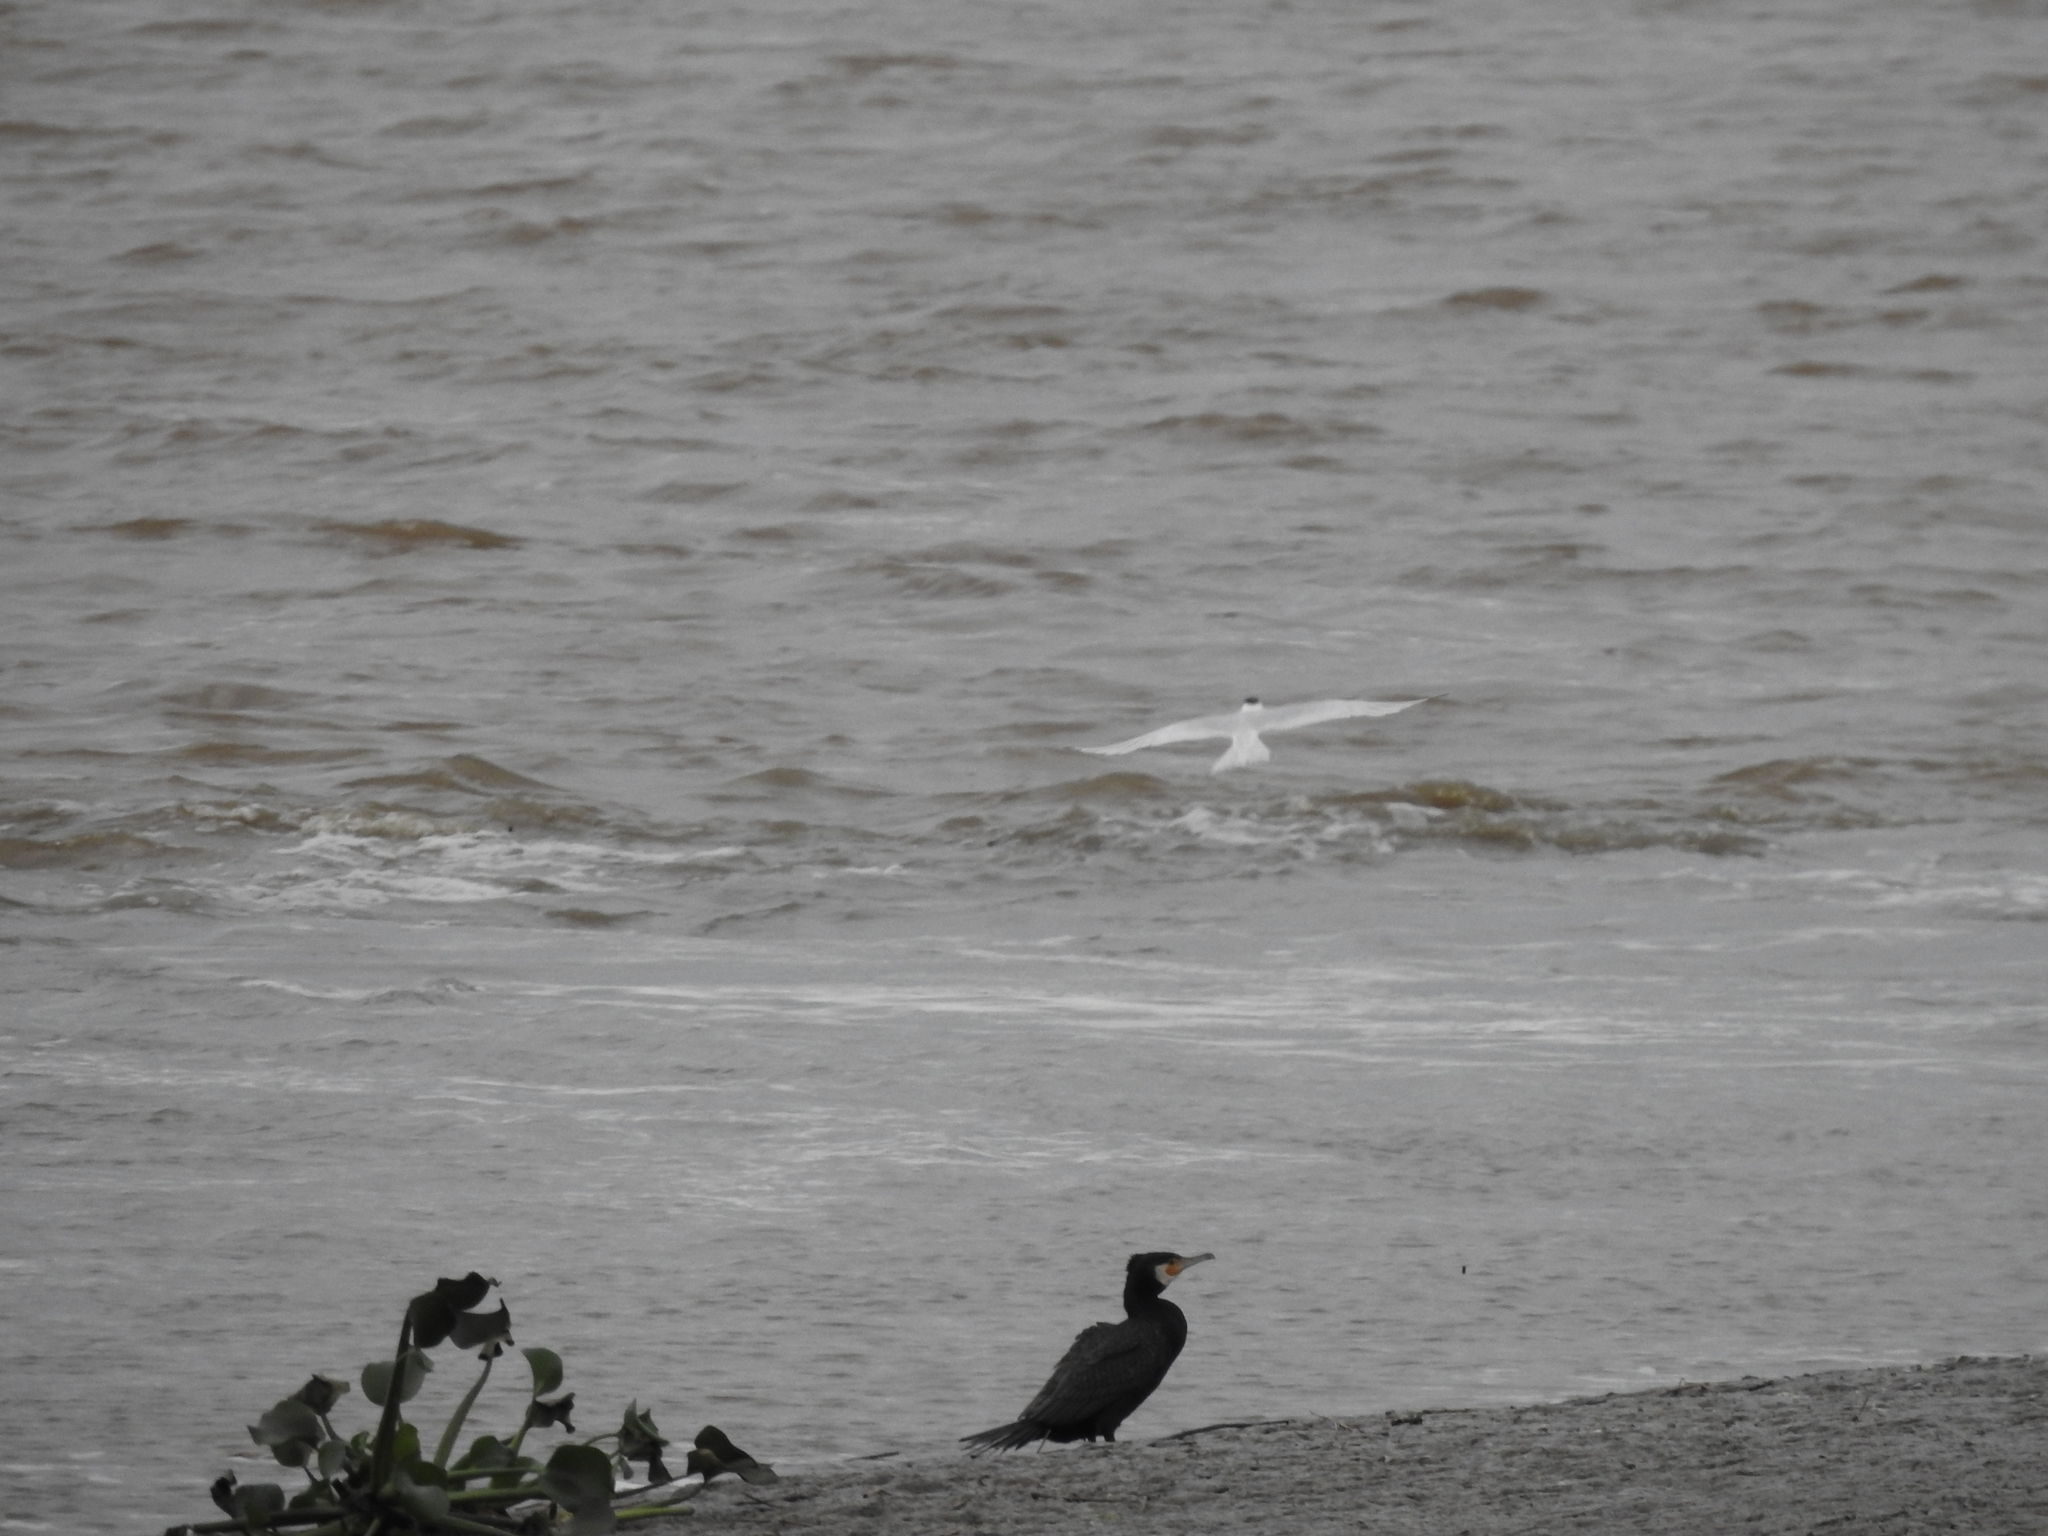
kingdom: Animalia
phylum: Chordata
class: Aves
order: Suliformes
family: Phalacrocoracidae
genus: Phalacrocorax
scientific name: Phalacrocorax carbo
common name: Great cormorant
